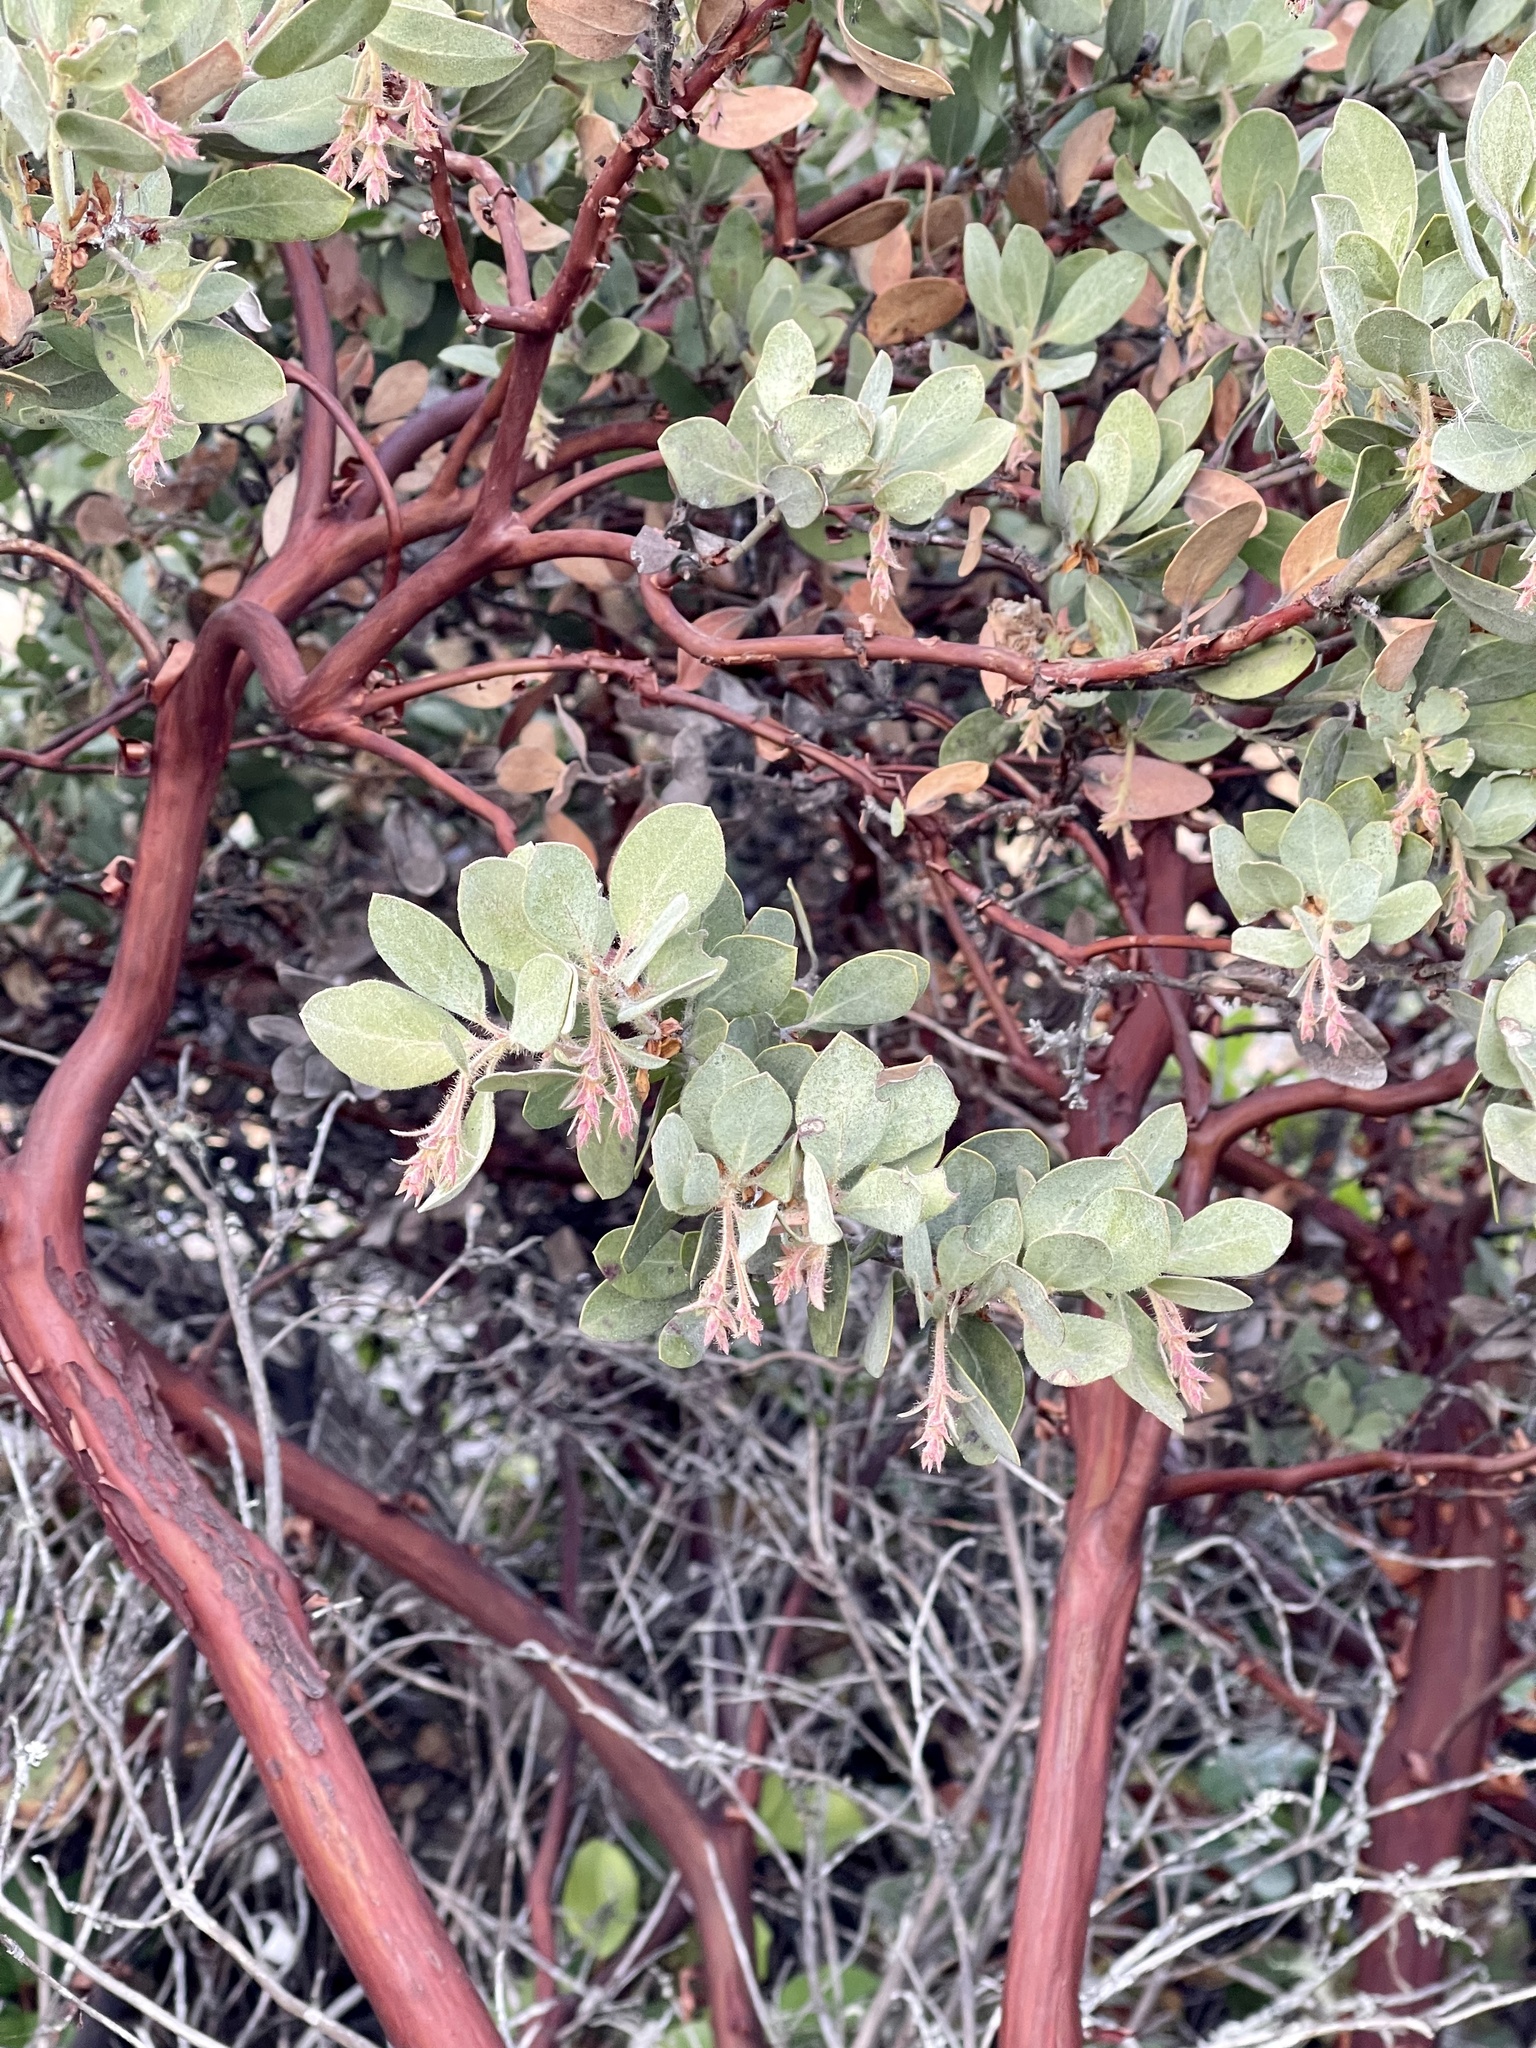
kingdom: Plantae
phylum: Tracheophyta
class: Magnoliopsida
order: Ericales
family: Ericaceae
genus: Arctostaphylos
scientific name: Arctostaphylos columbiana
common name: Bristly bearberry
